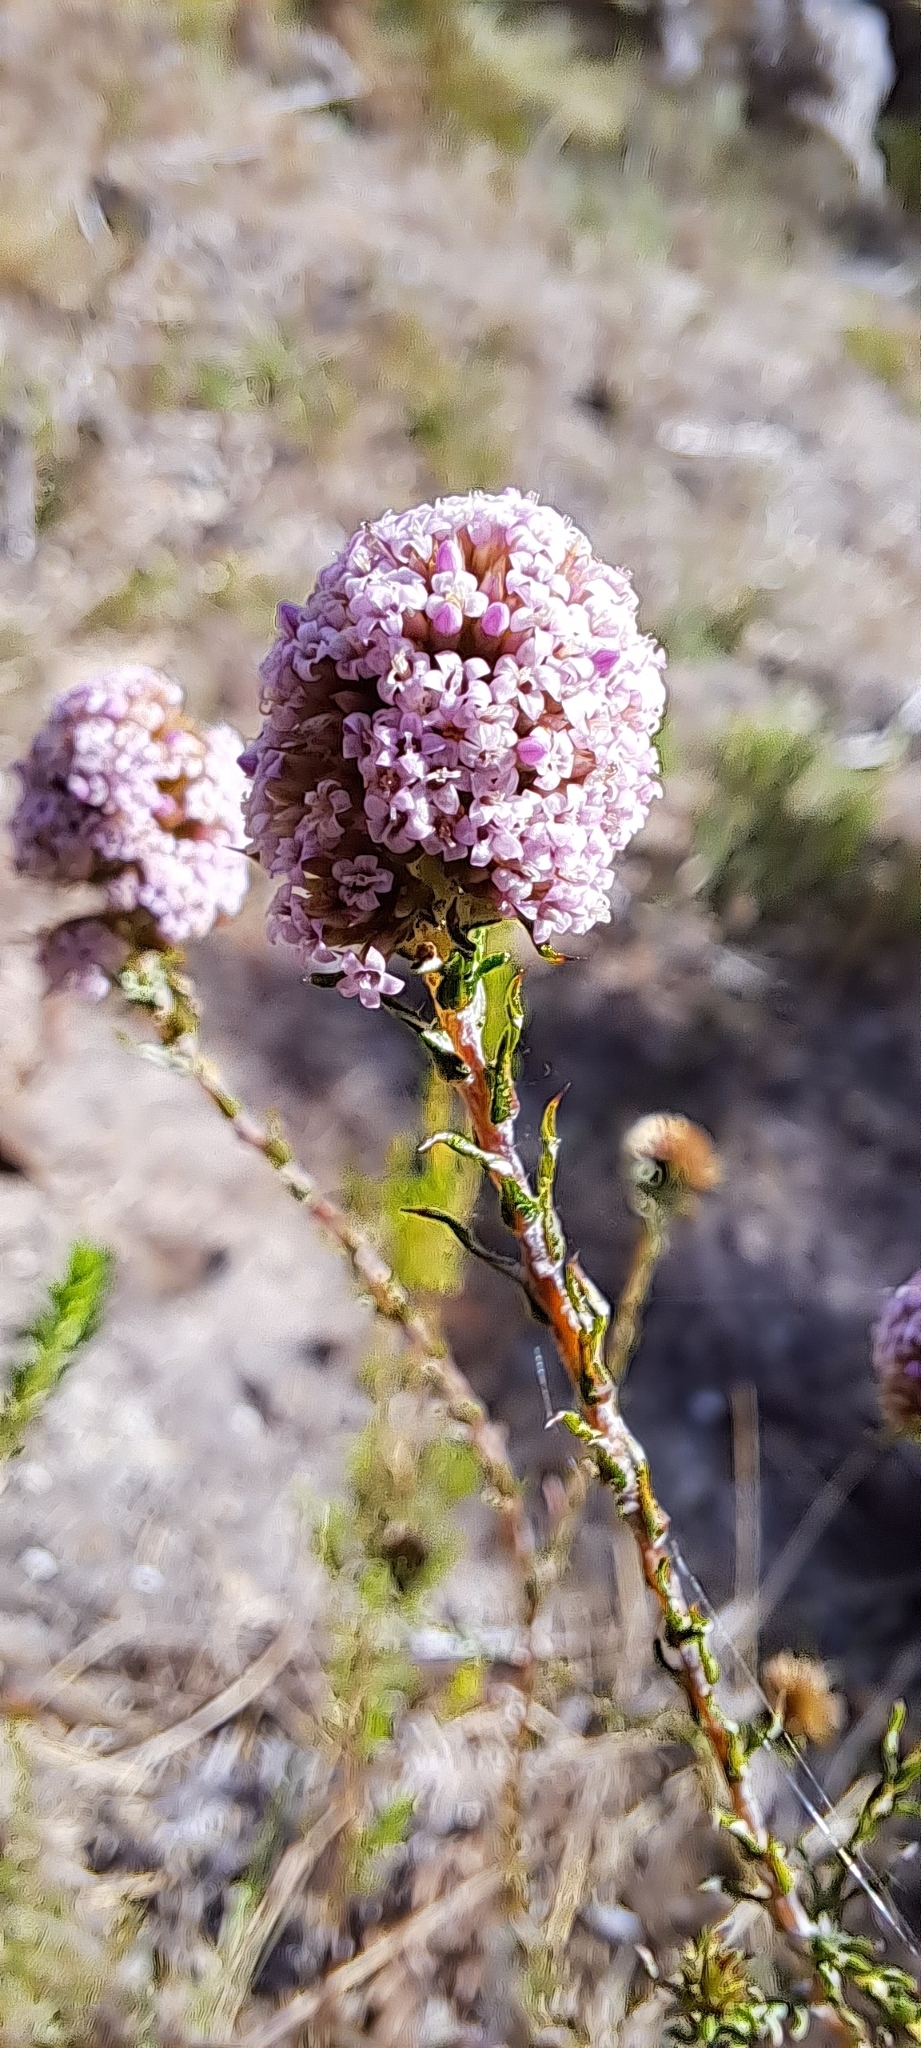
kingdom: Plantae
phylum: Tracheophyta
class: Magnoliopsida
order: Asterales
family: Asteraceae
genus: Stoebe
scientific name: Stoebe capitata
